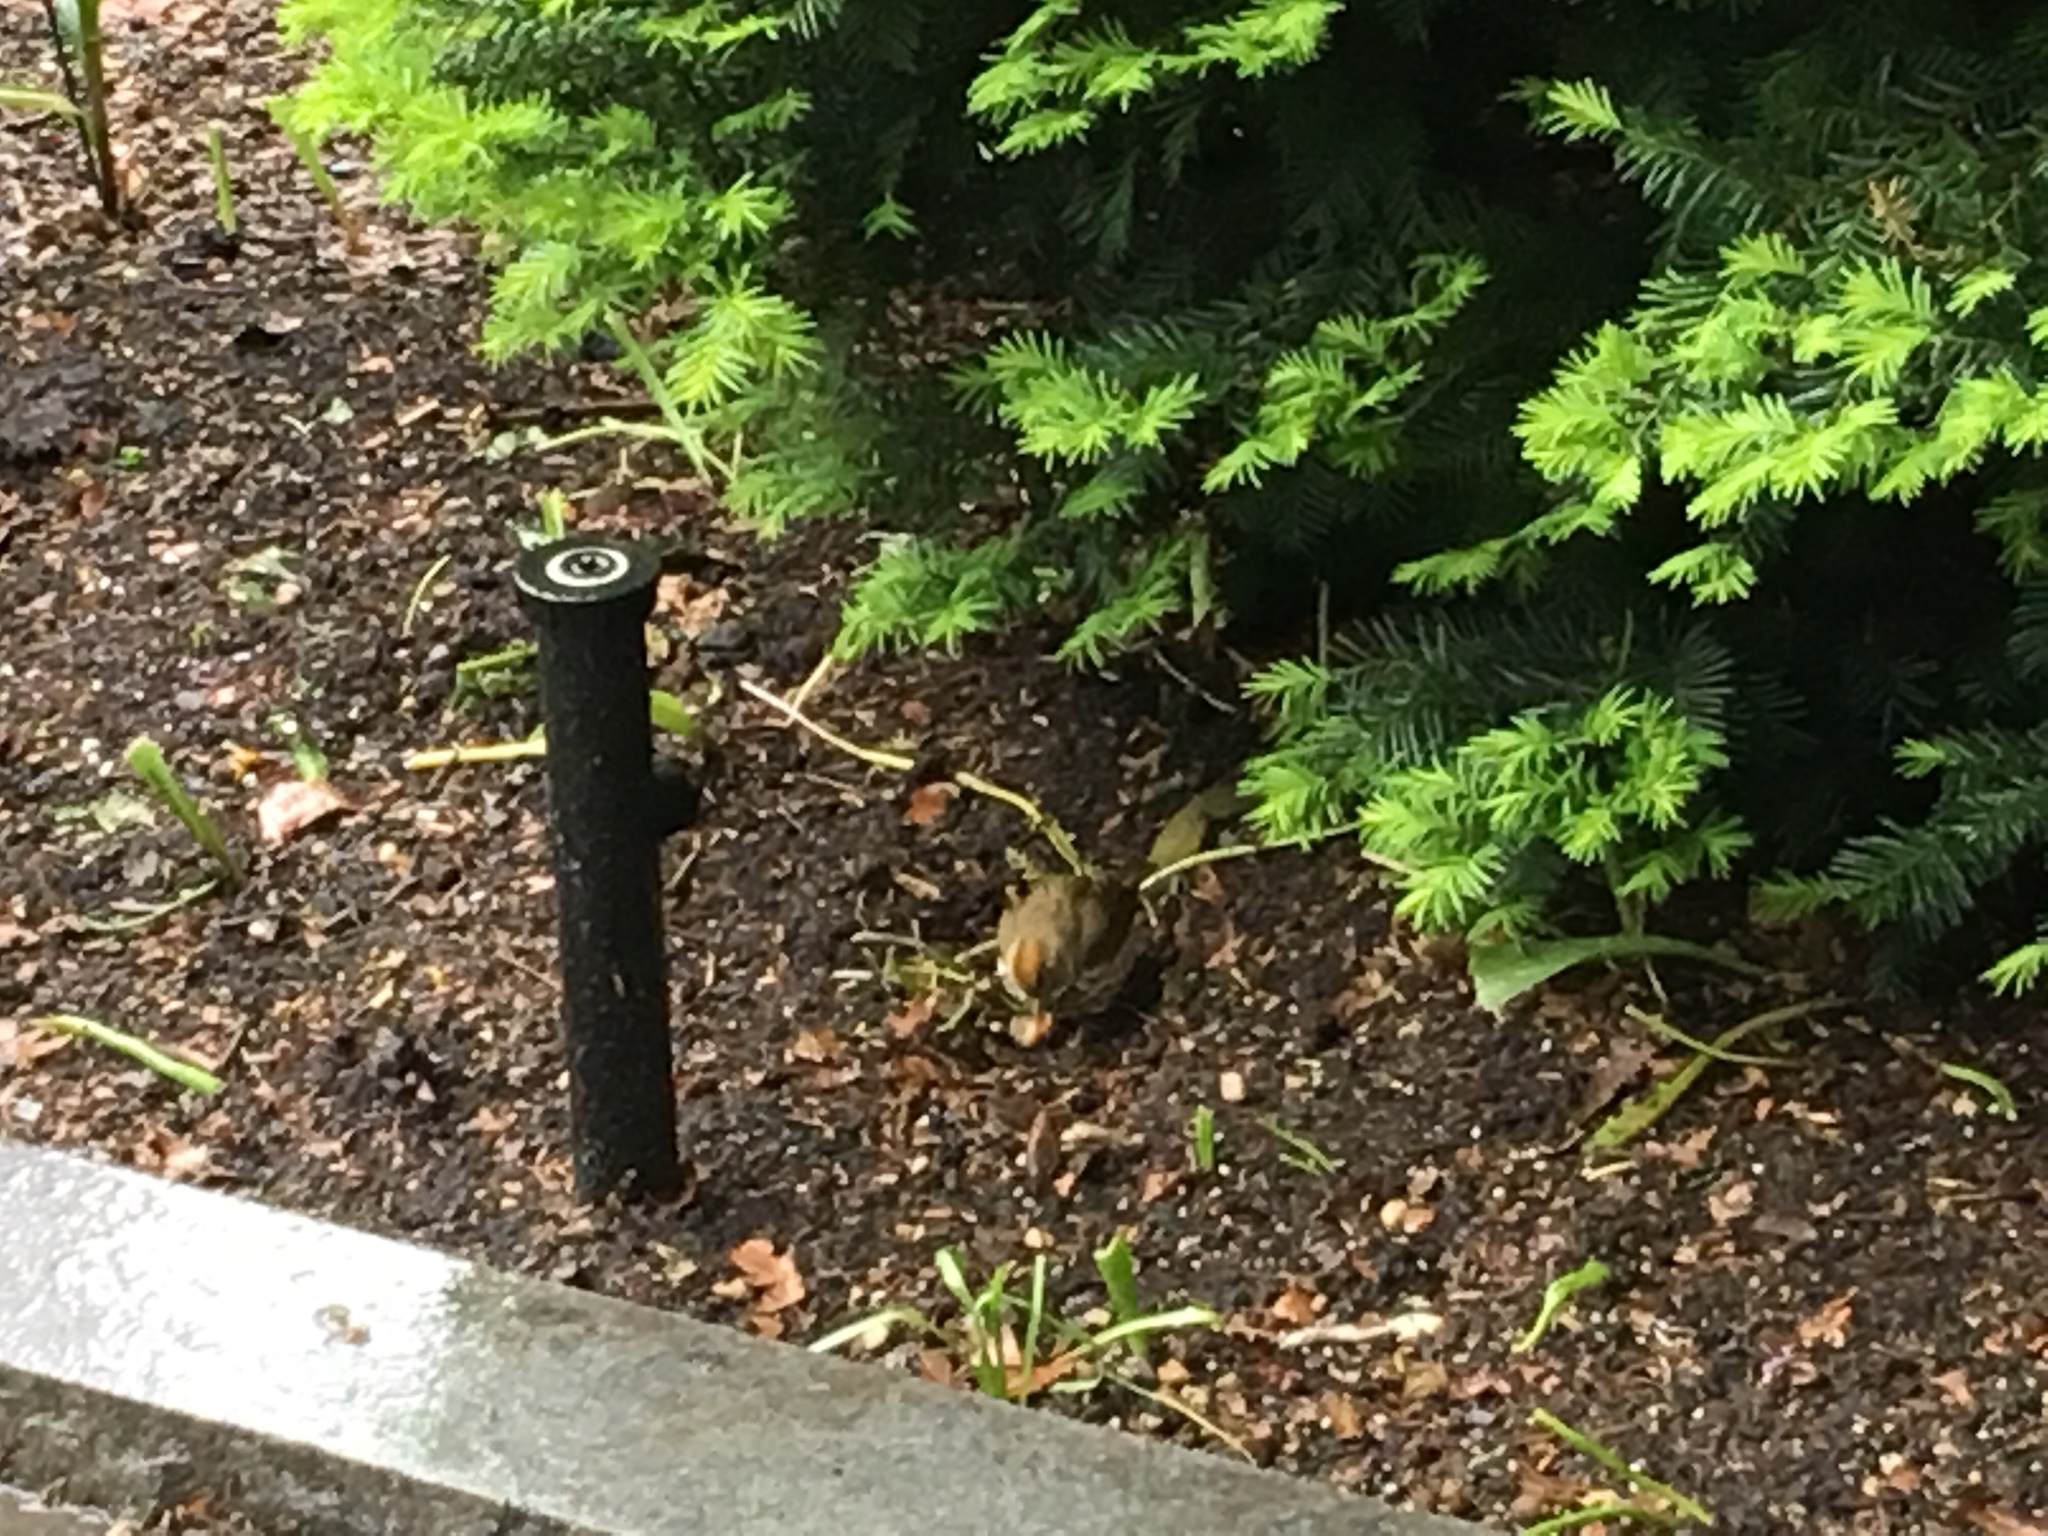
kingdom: Animalia
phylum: Chordata
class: Aves
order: Passeriformes
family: Parulidae
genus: Seiurus
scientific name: Seiurus aurocapilla
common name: Ovenbird
